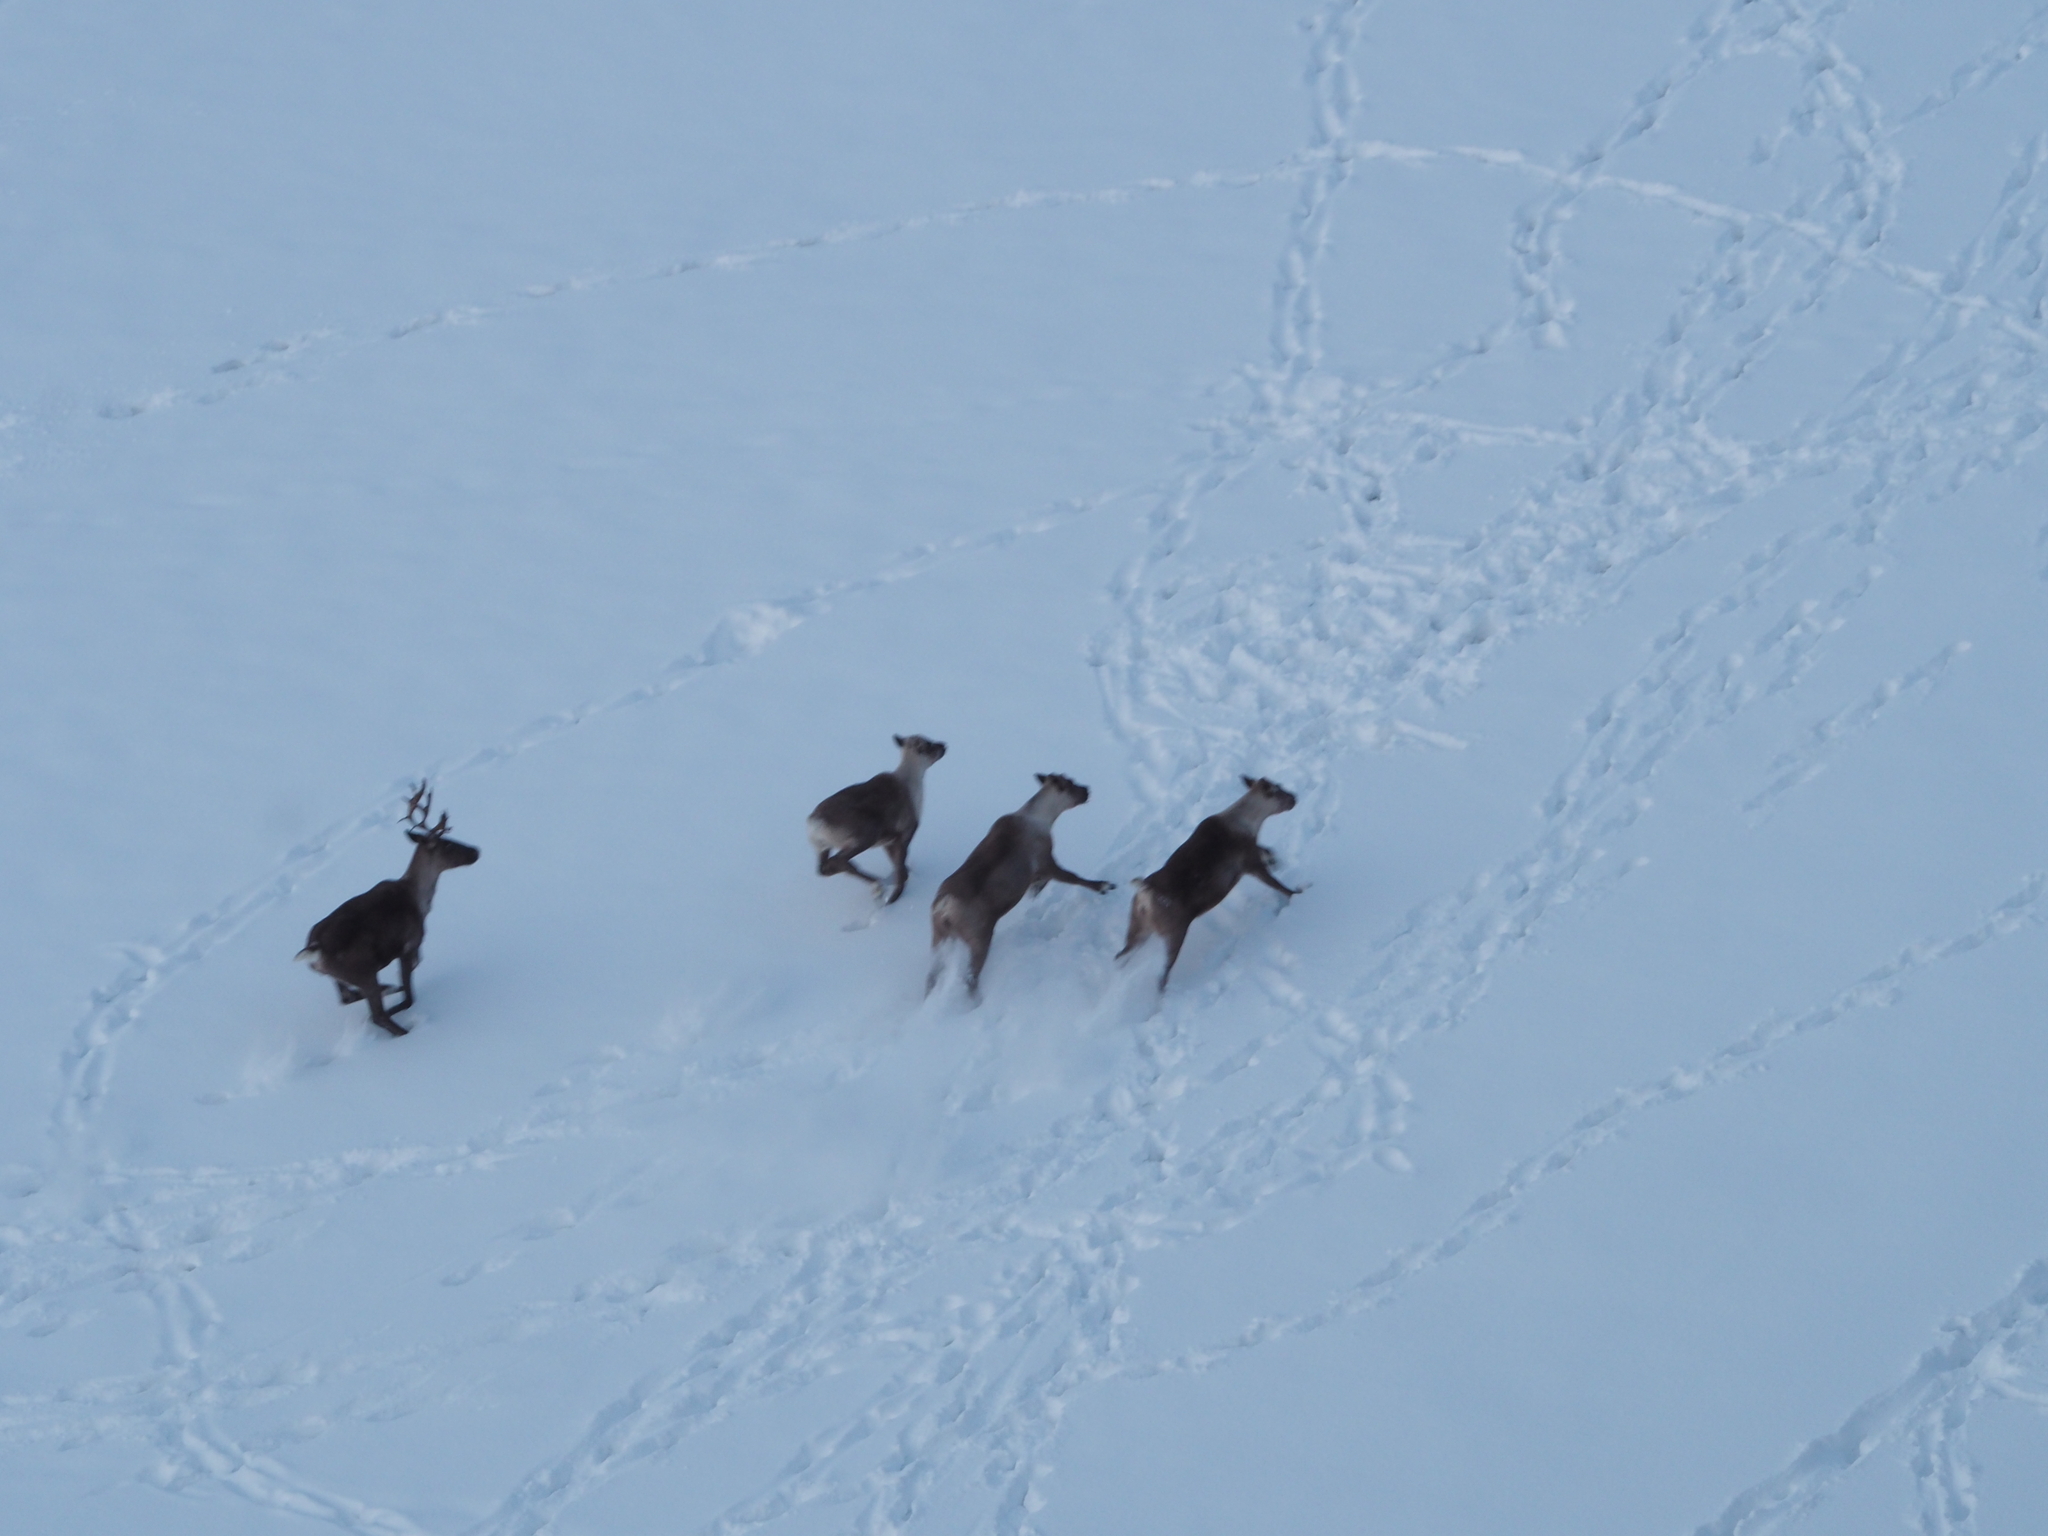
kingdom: Animalia
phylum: Chordata
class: Mammalia
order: Artiodactyla
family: Cervidae
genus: Rangifer
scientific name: Rangifer tarandus
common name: Reindeer
